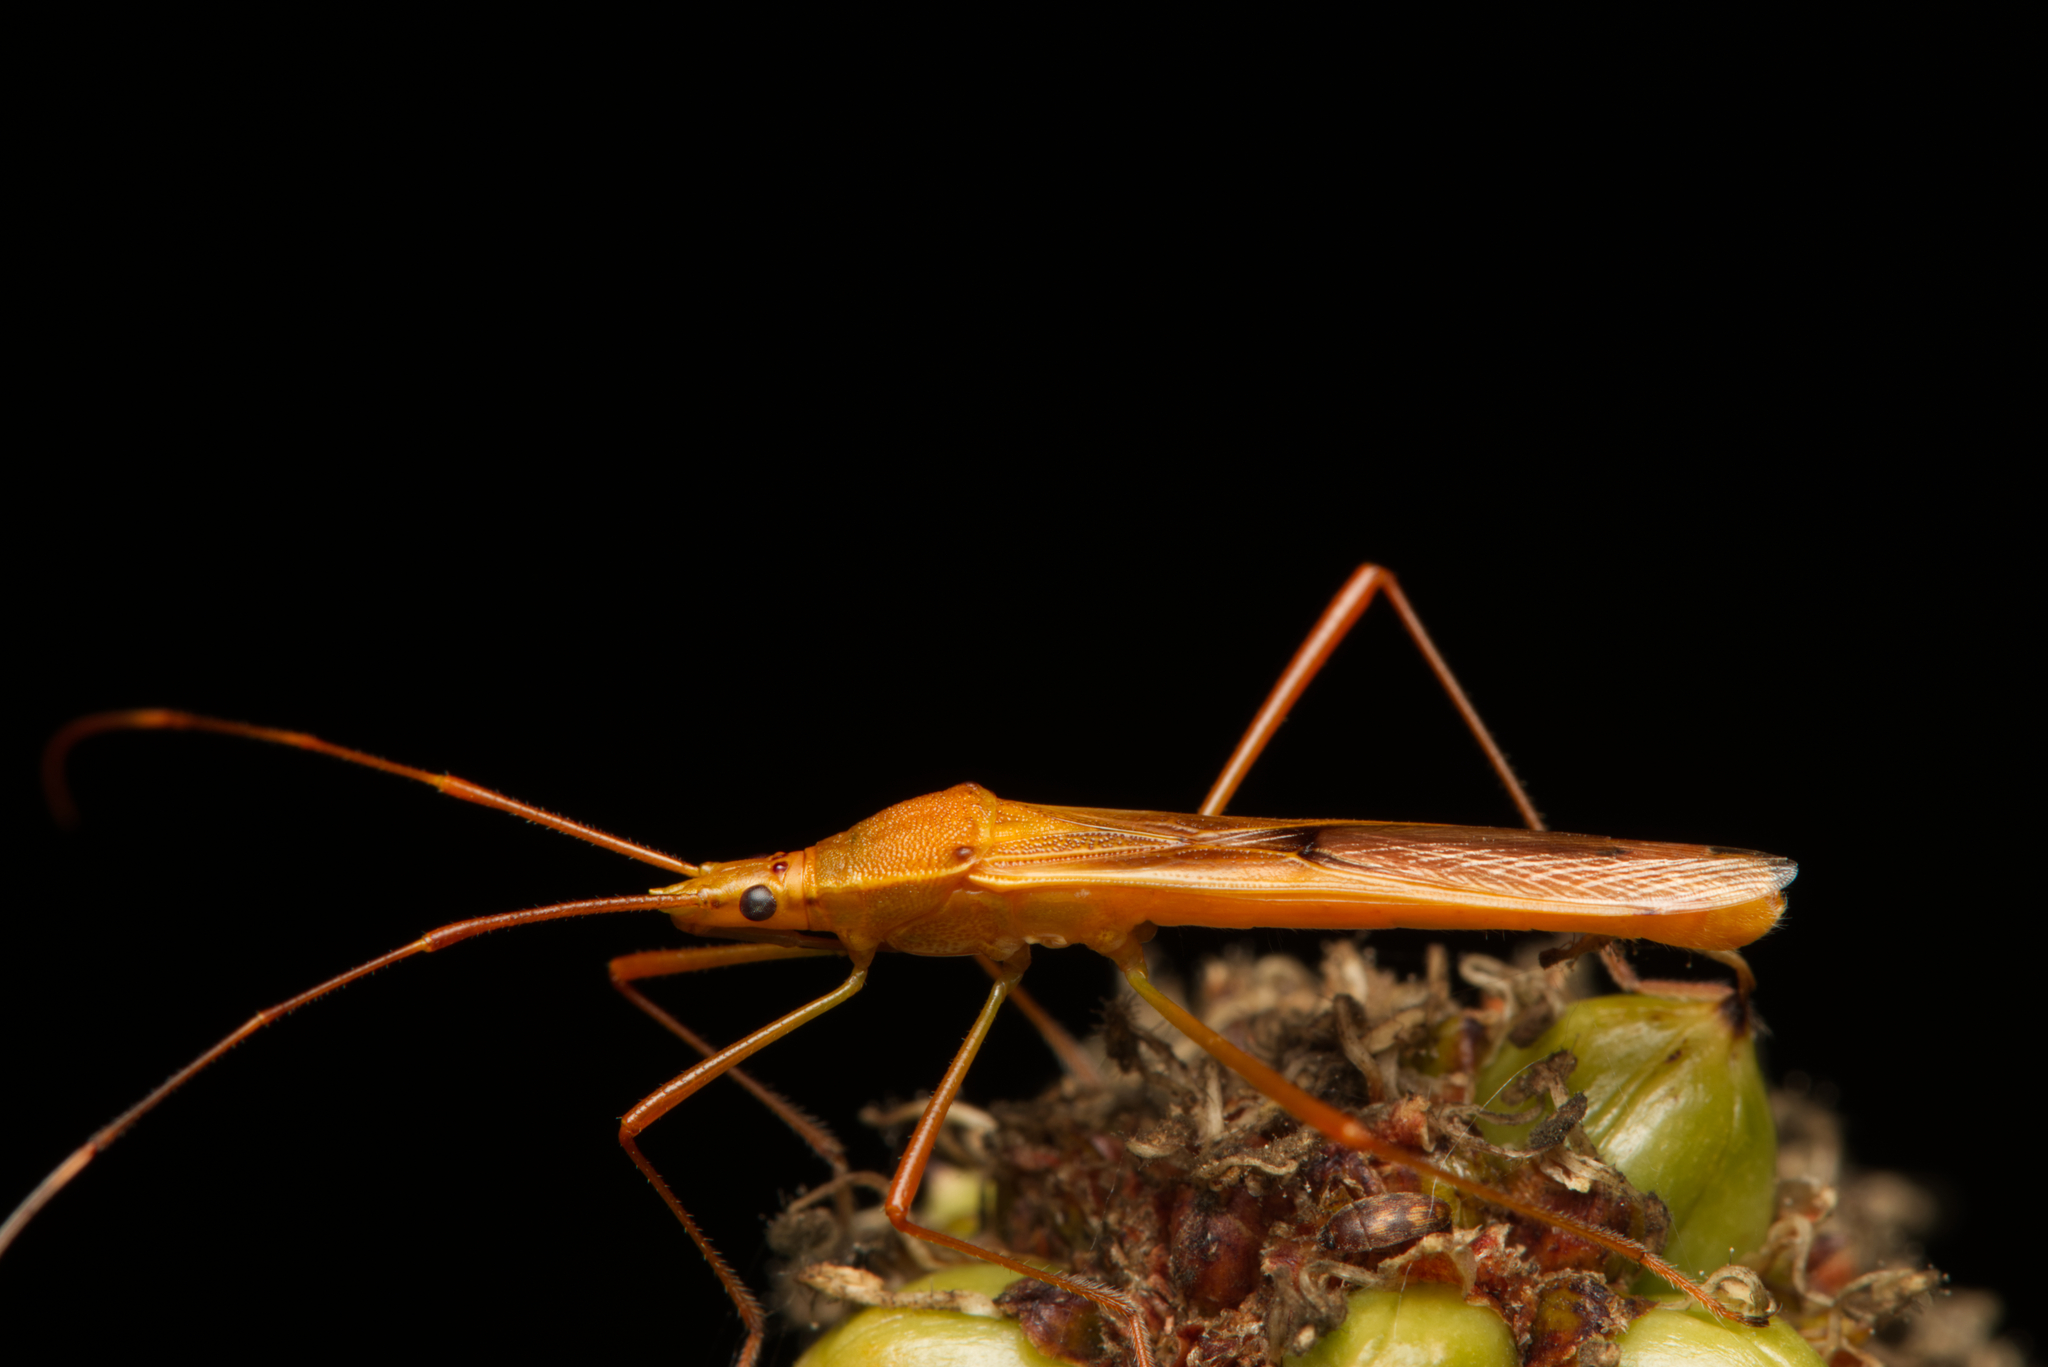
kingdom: Animalia
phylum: Arthropoda
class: Insecta
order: Hemiptera
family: Alydidae
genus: Leptocorisa
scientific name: Leptocorisa acuta
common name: Gandhi bug
